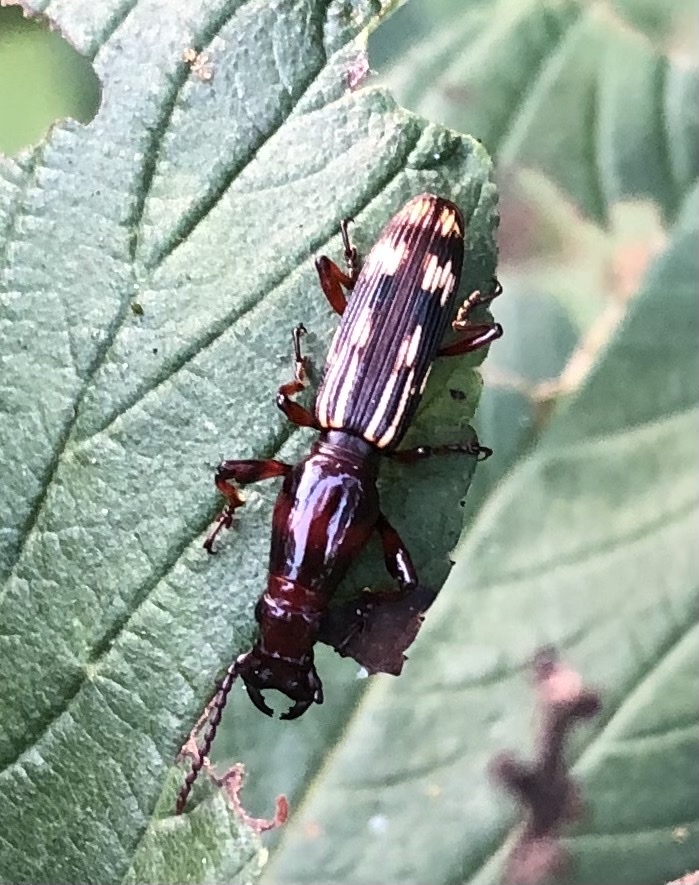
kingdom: Animalia
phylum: Arthropoda
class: Insecta
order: Coleoptera
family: Brentidae
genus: Arrenodes
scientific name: Arrenodes minutus
